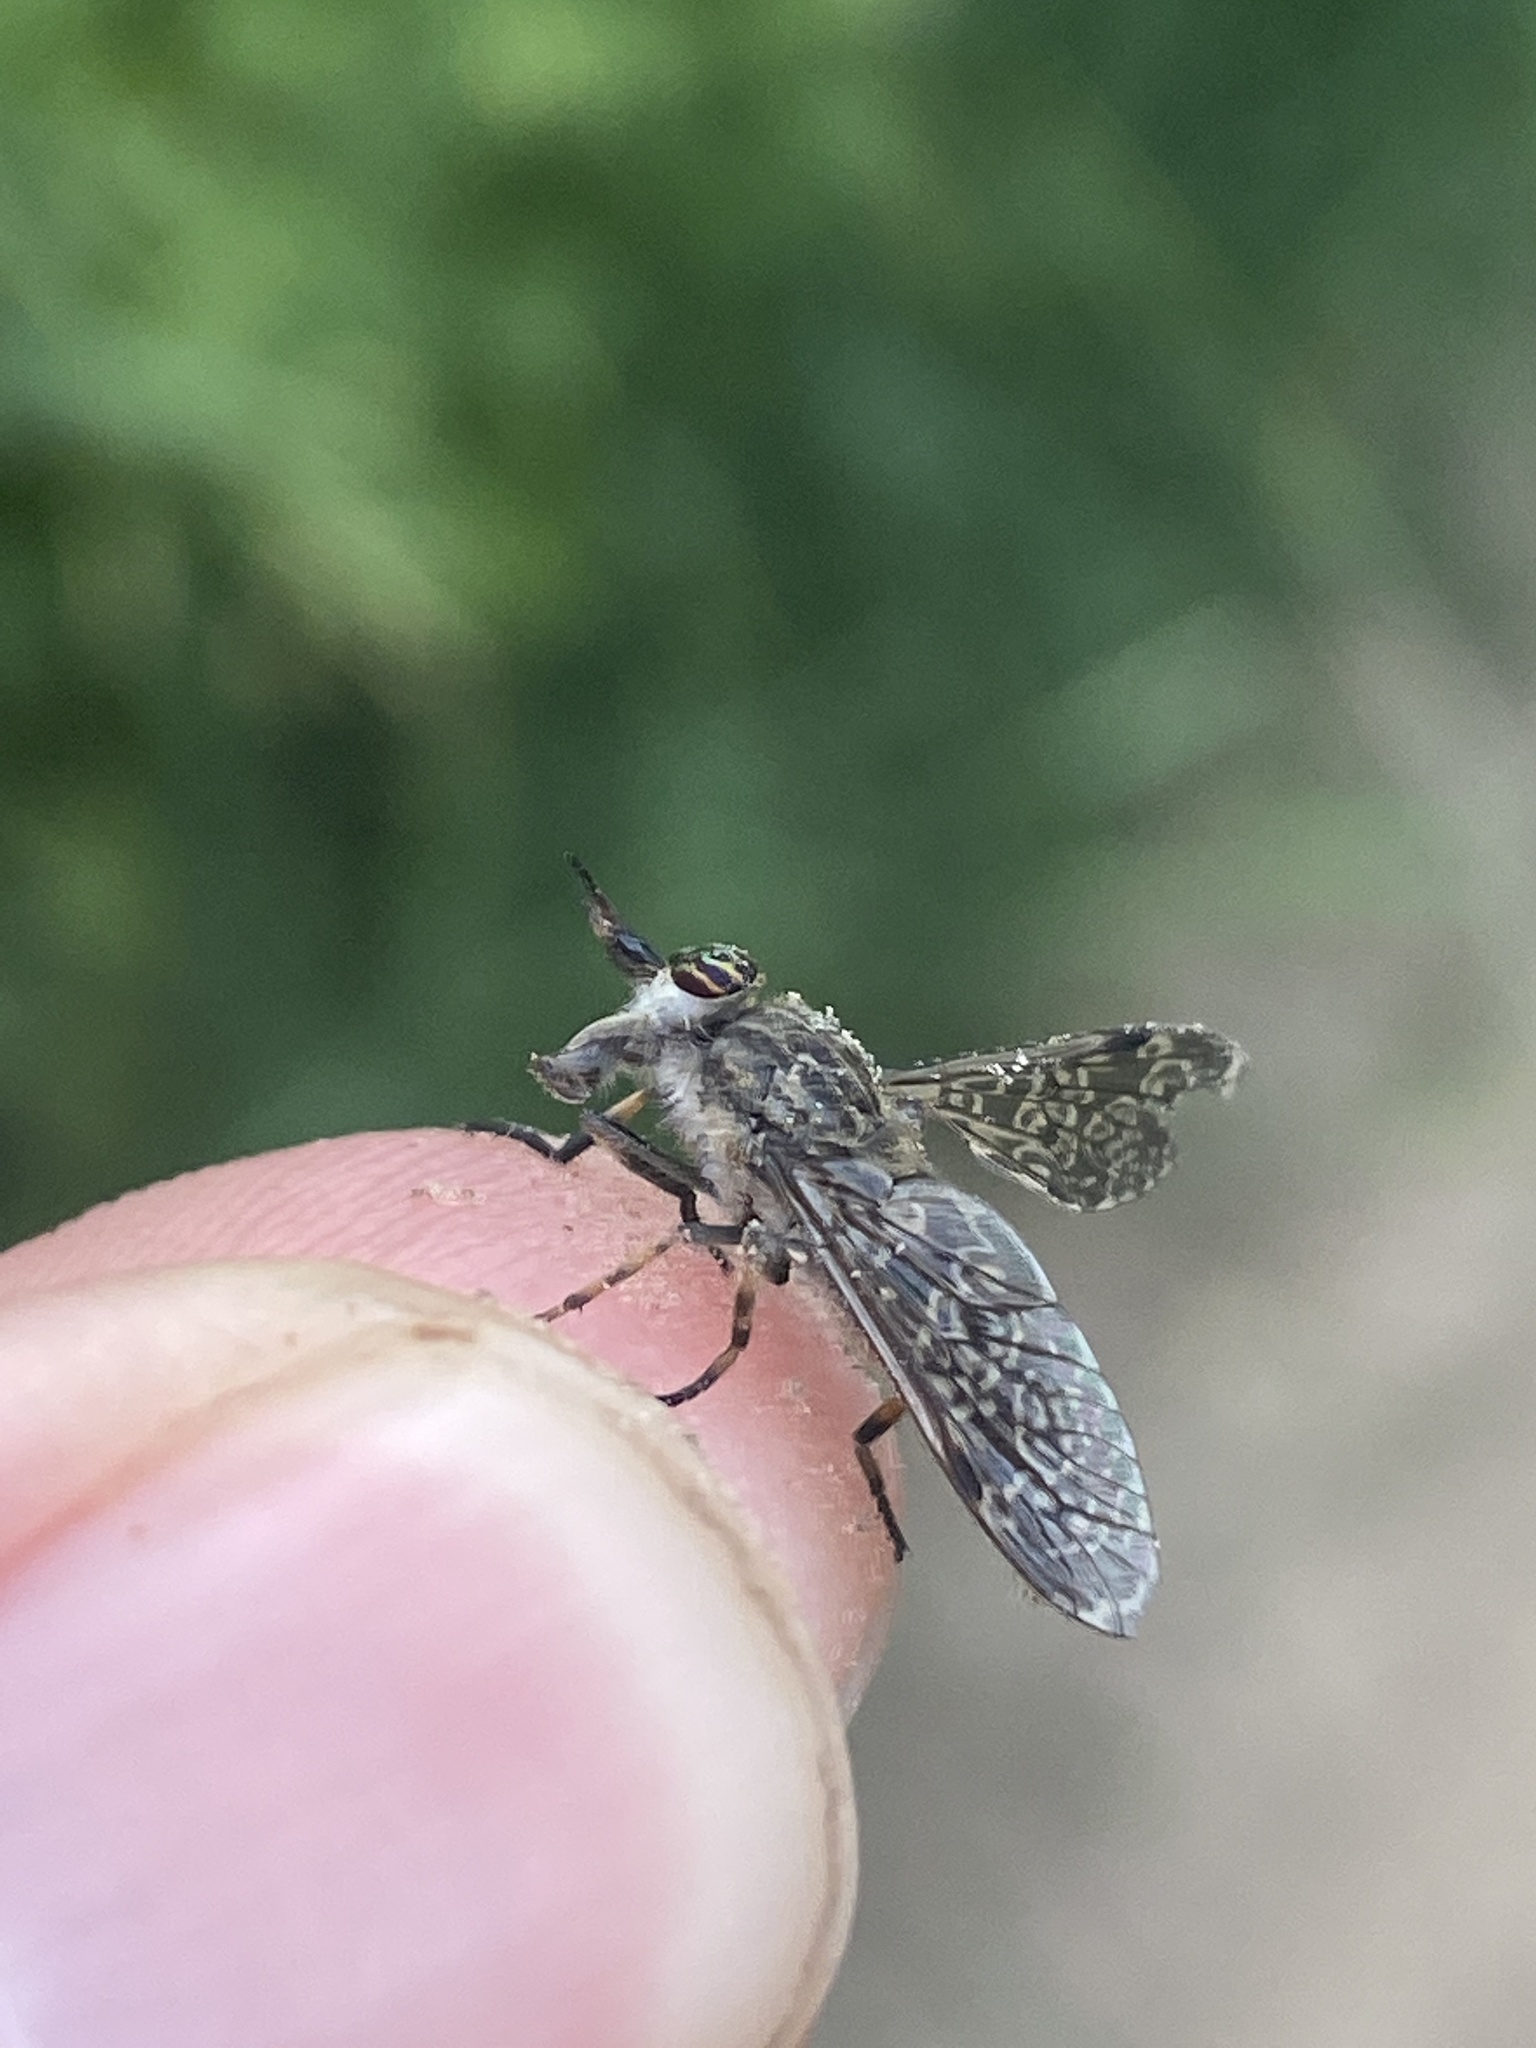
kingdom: Animalia
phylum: Arthropoda
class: Insecta
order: Diptera
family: Tabanidae
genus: Haematopota
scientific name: Haematopota pluvialis
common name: Common horse fly
